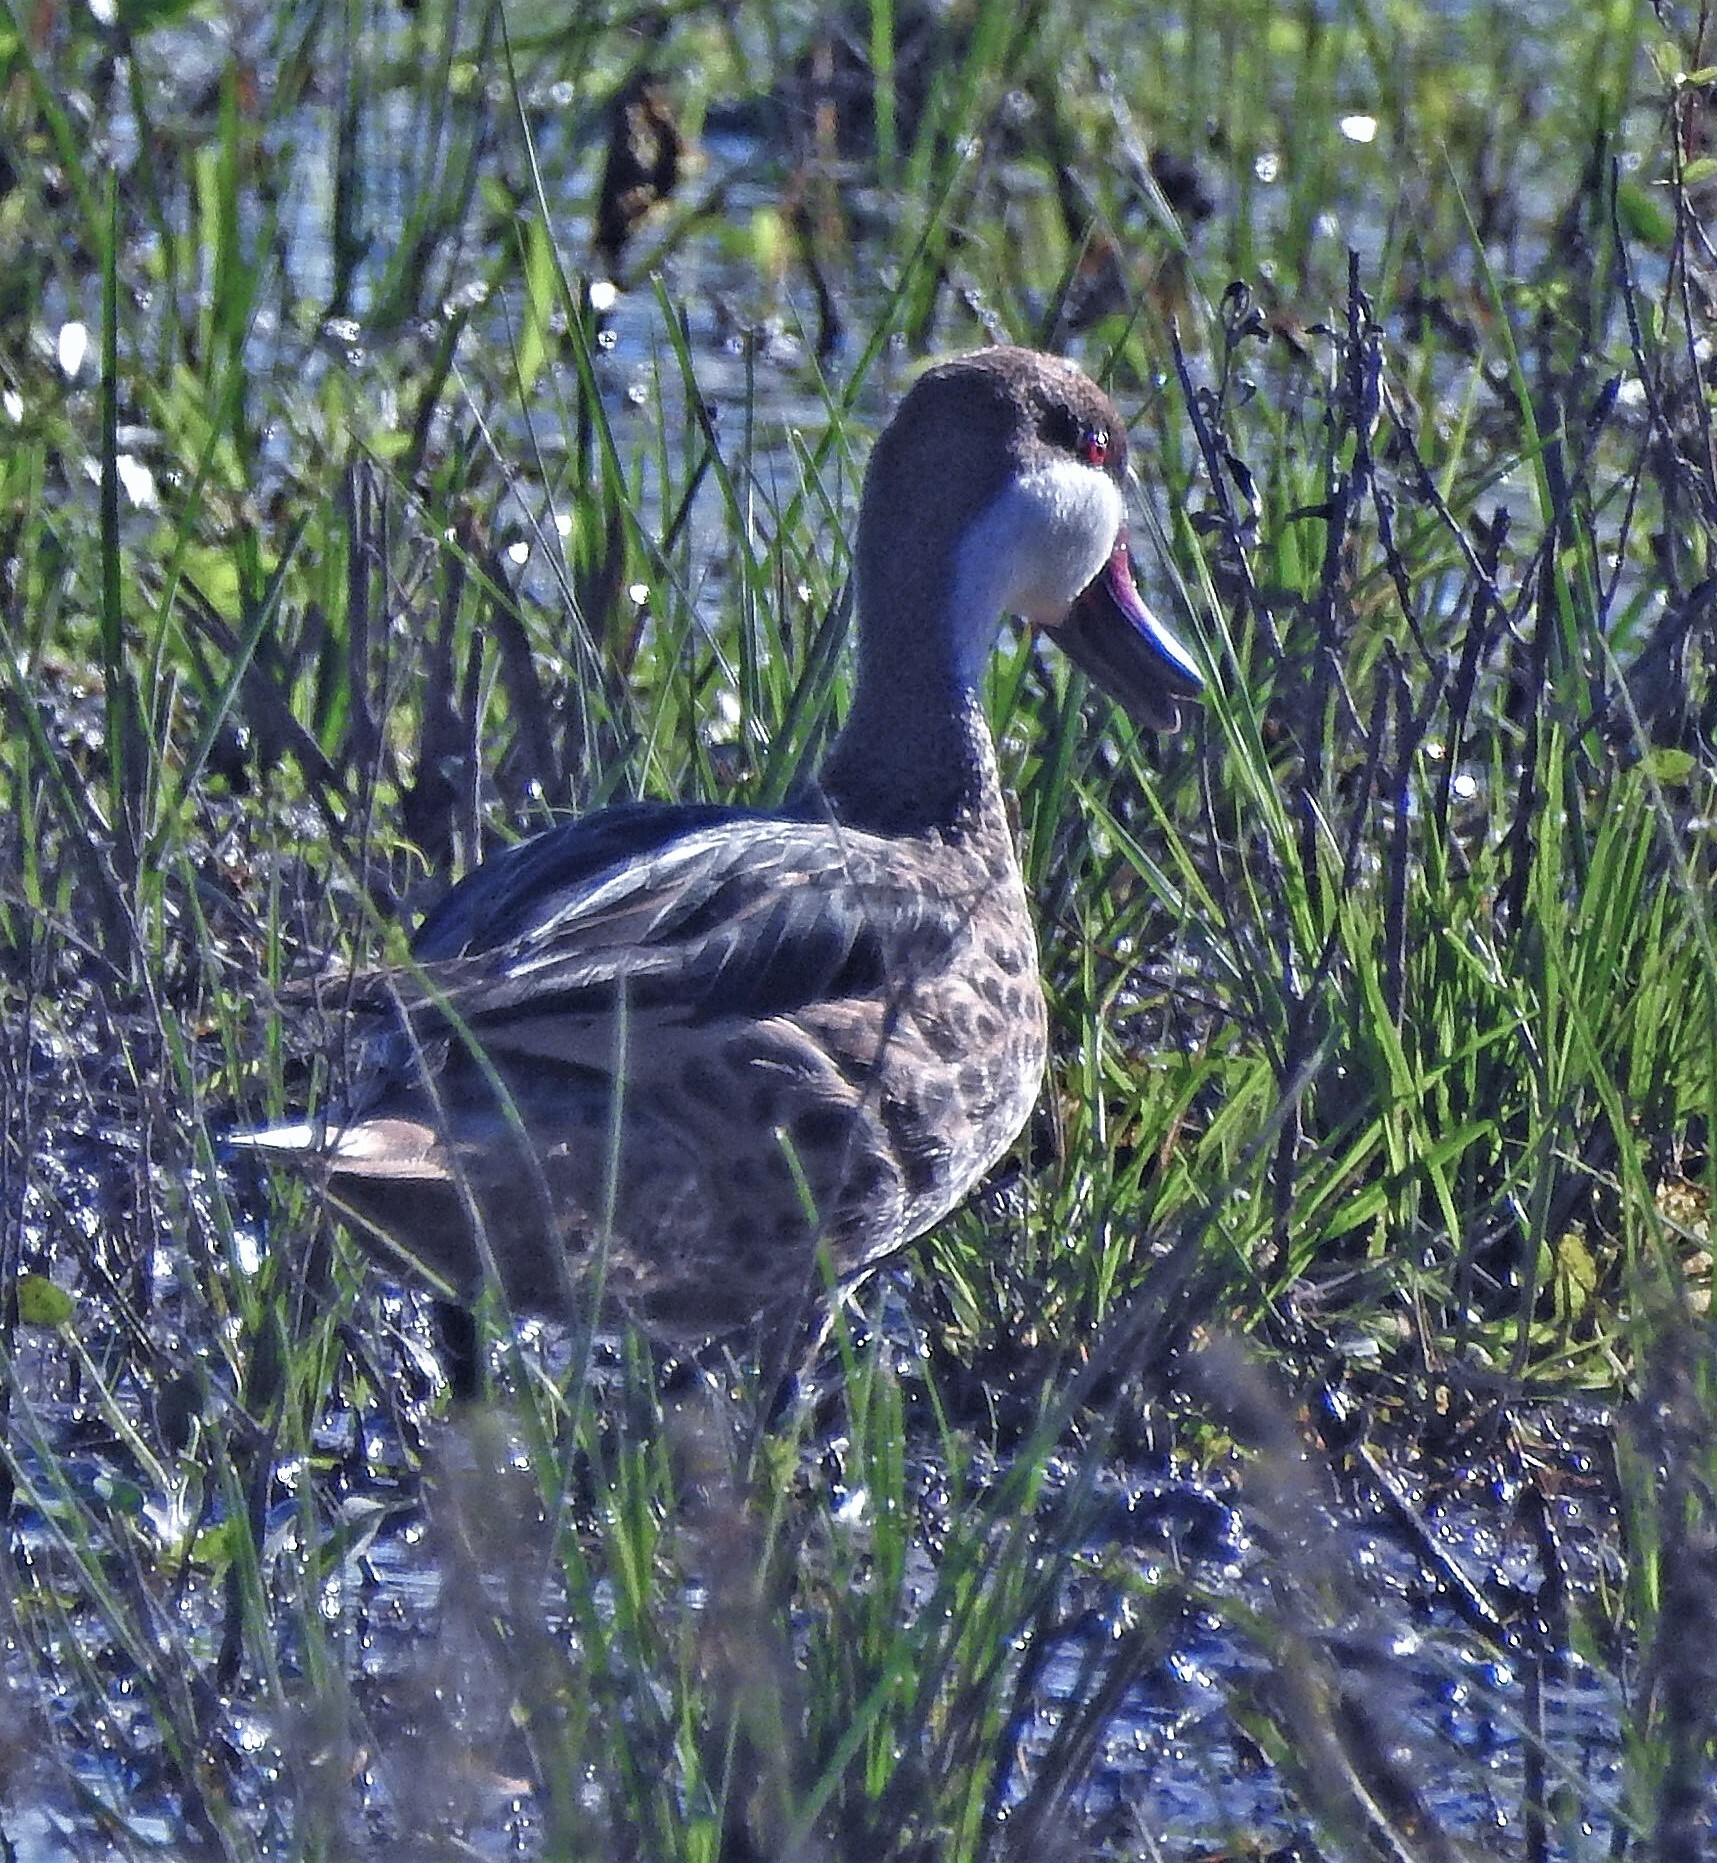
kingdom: Animalia
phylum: Chordata
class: Aves
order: Anseriformes
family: Anatidae
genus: Anas
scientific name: Anas bahamensis
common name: White-cheeked pintail
